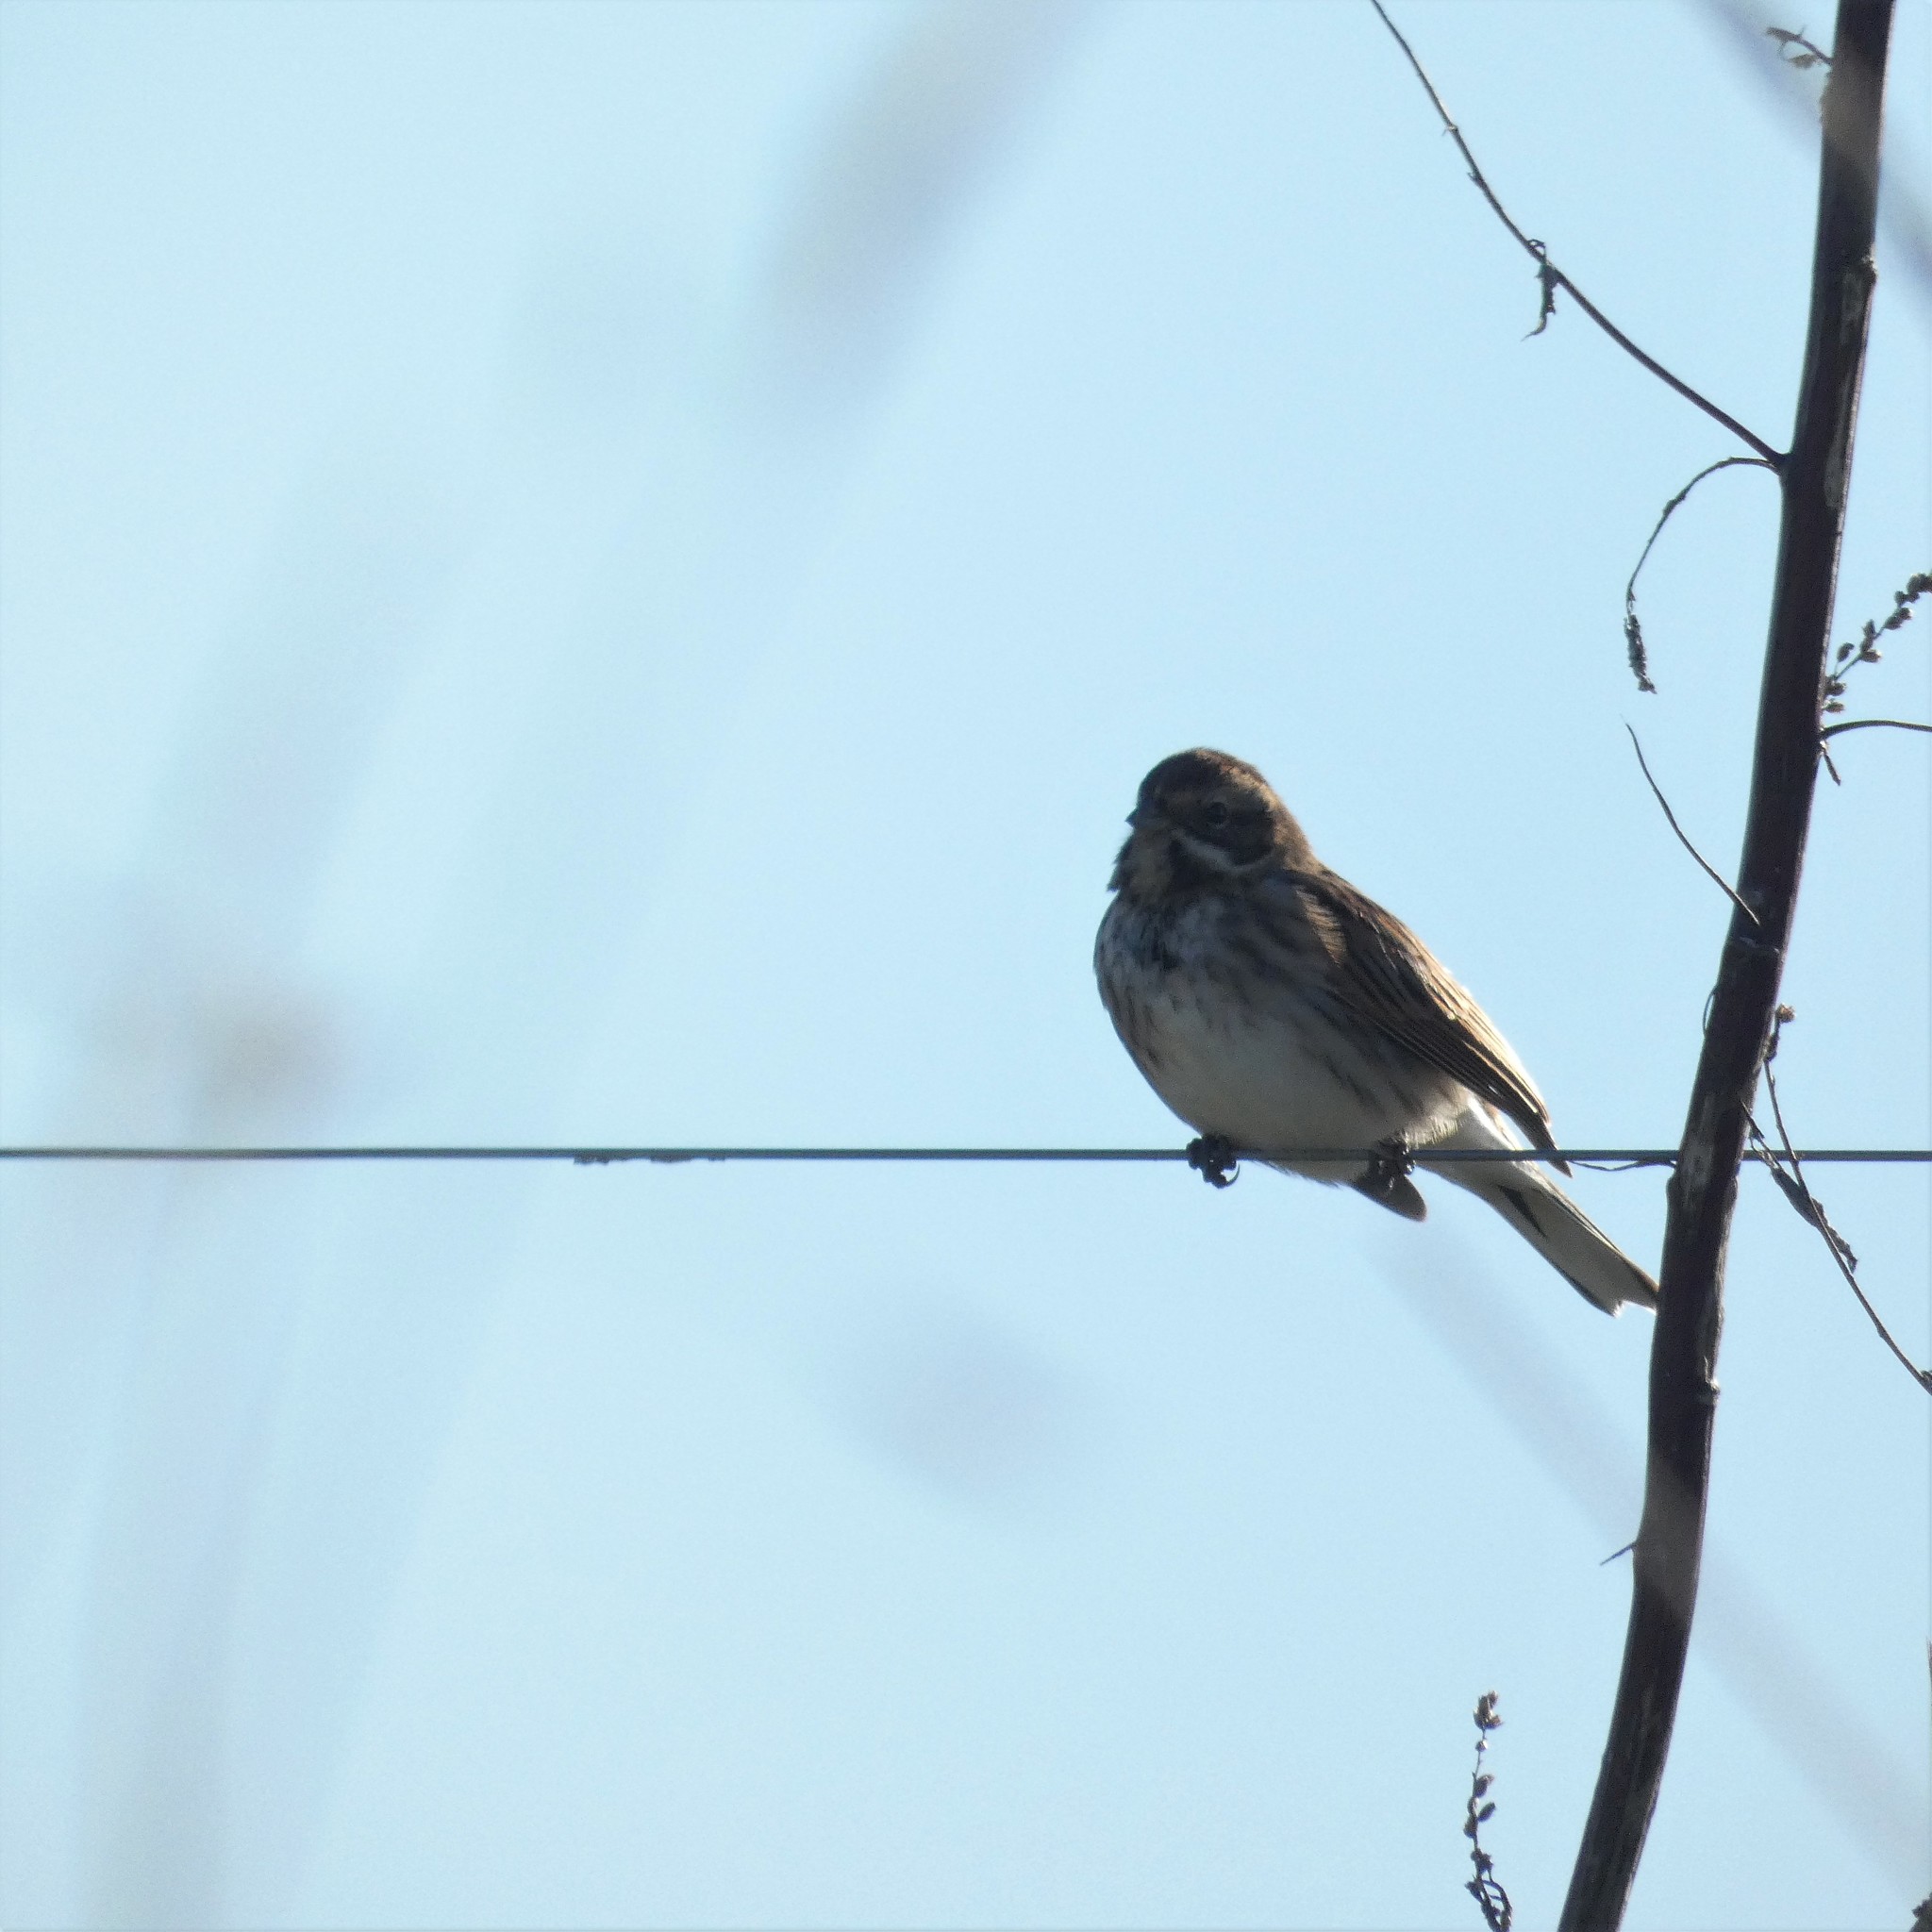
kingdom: Animalia
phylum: Chordata
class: Aves
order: Passeriformes
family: Emberizidae
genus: Emberiza
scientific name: Emberiza schoeniclus
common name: Reed bunting
